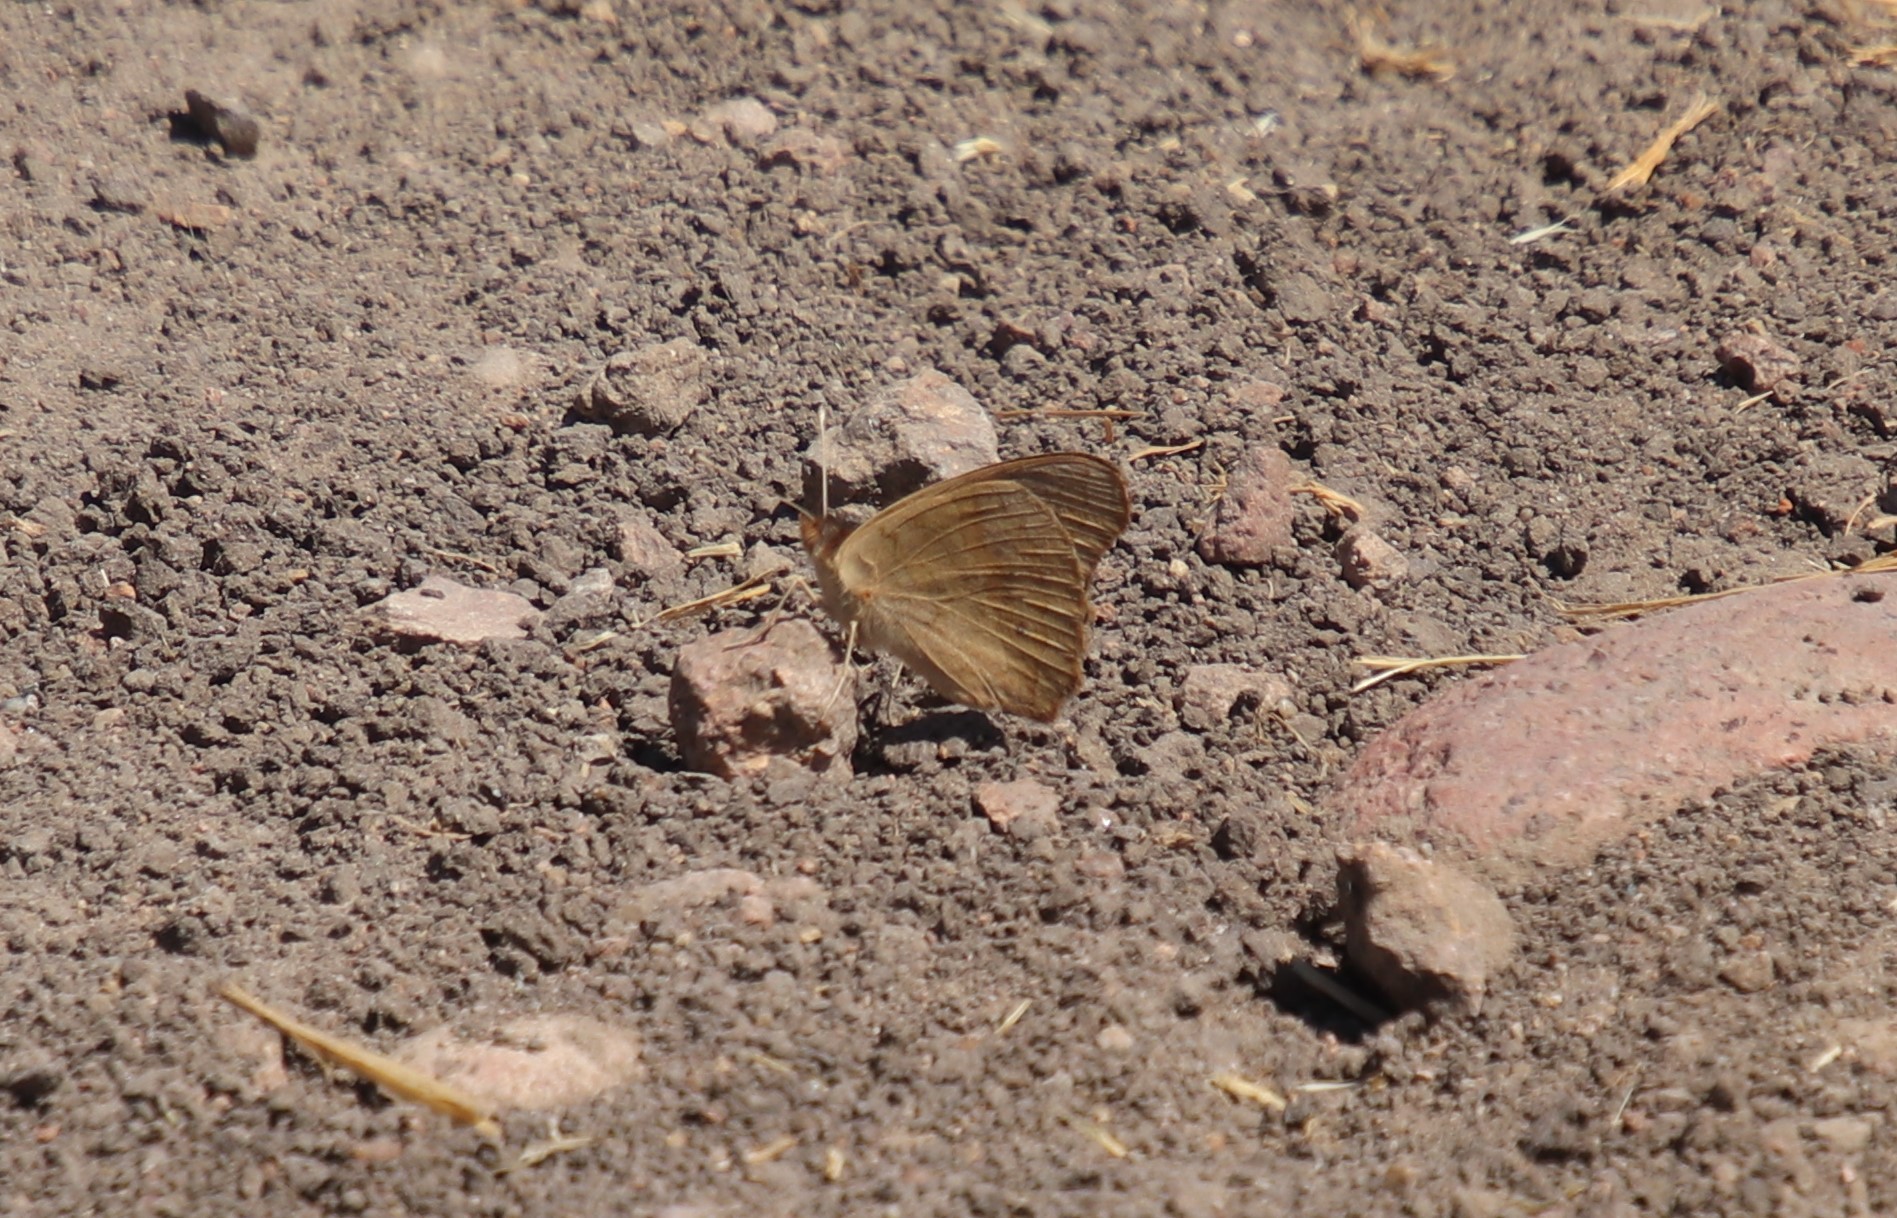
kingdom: Animalia
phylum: Arthropoda
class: Insecta
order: Lepidoptera
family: Nymphalidae
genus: Junonia
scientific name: Junonia grisea
